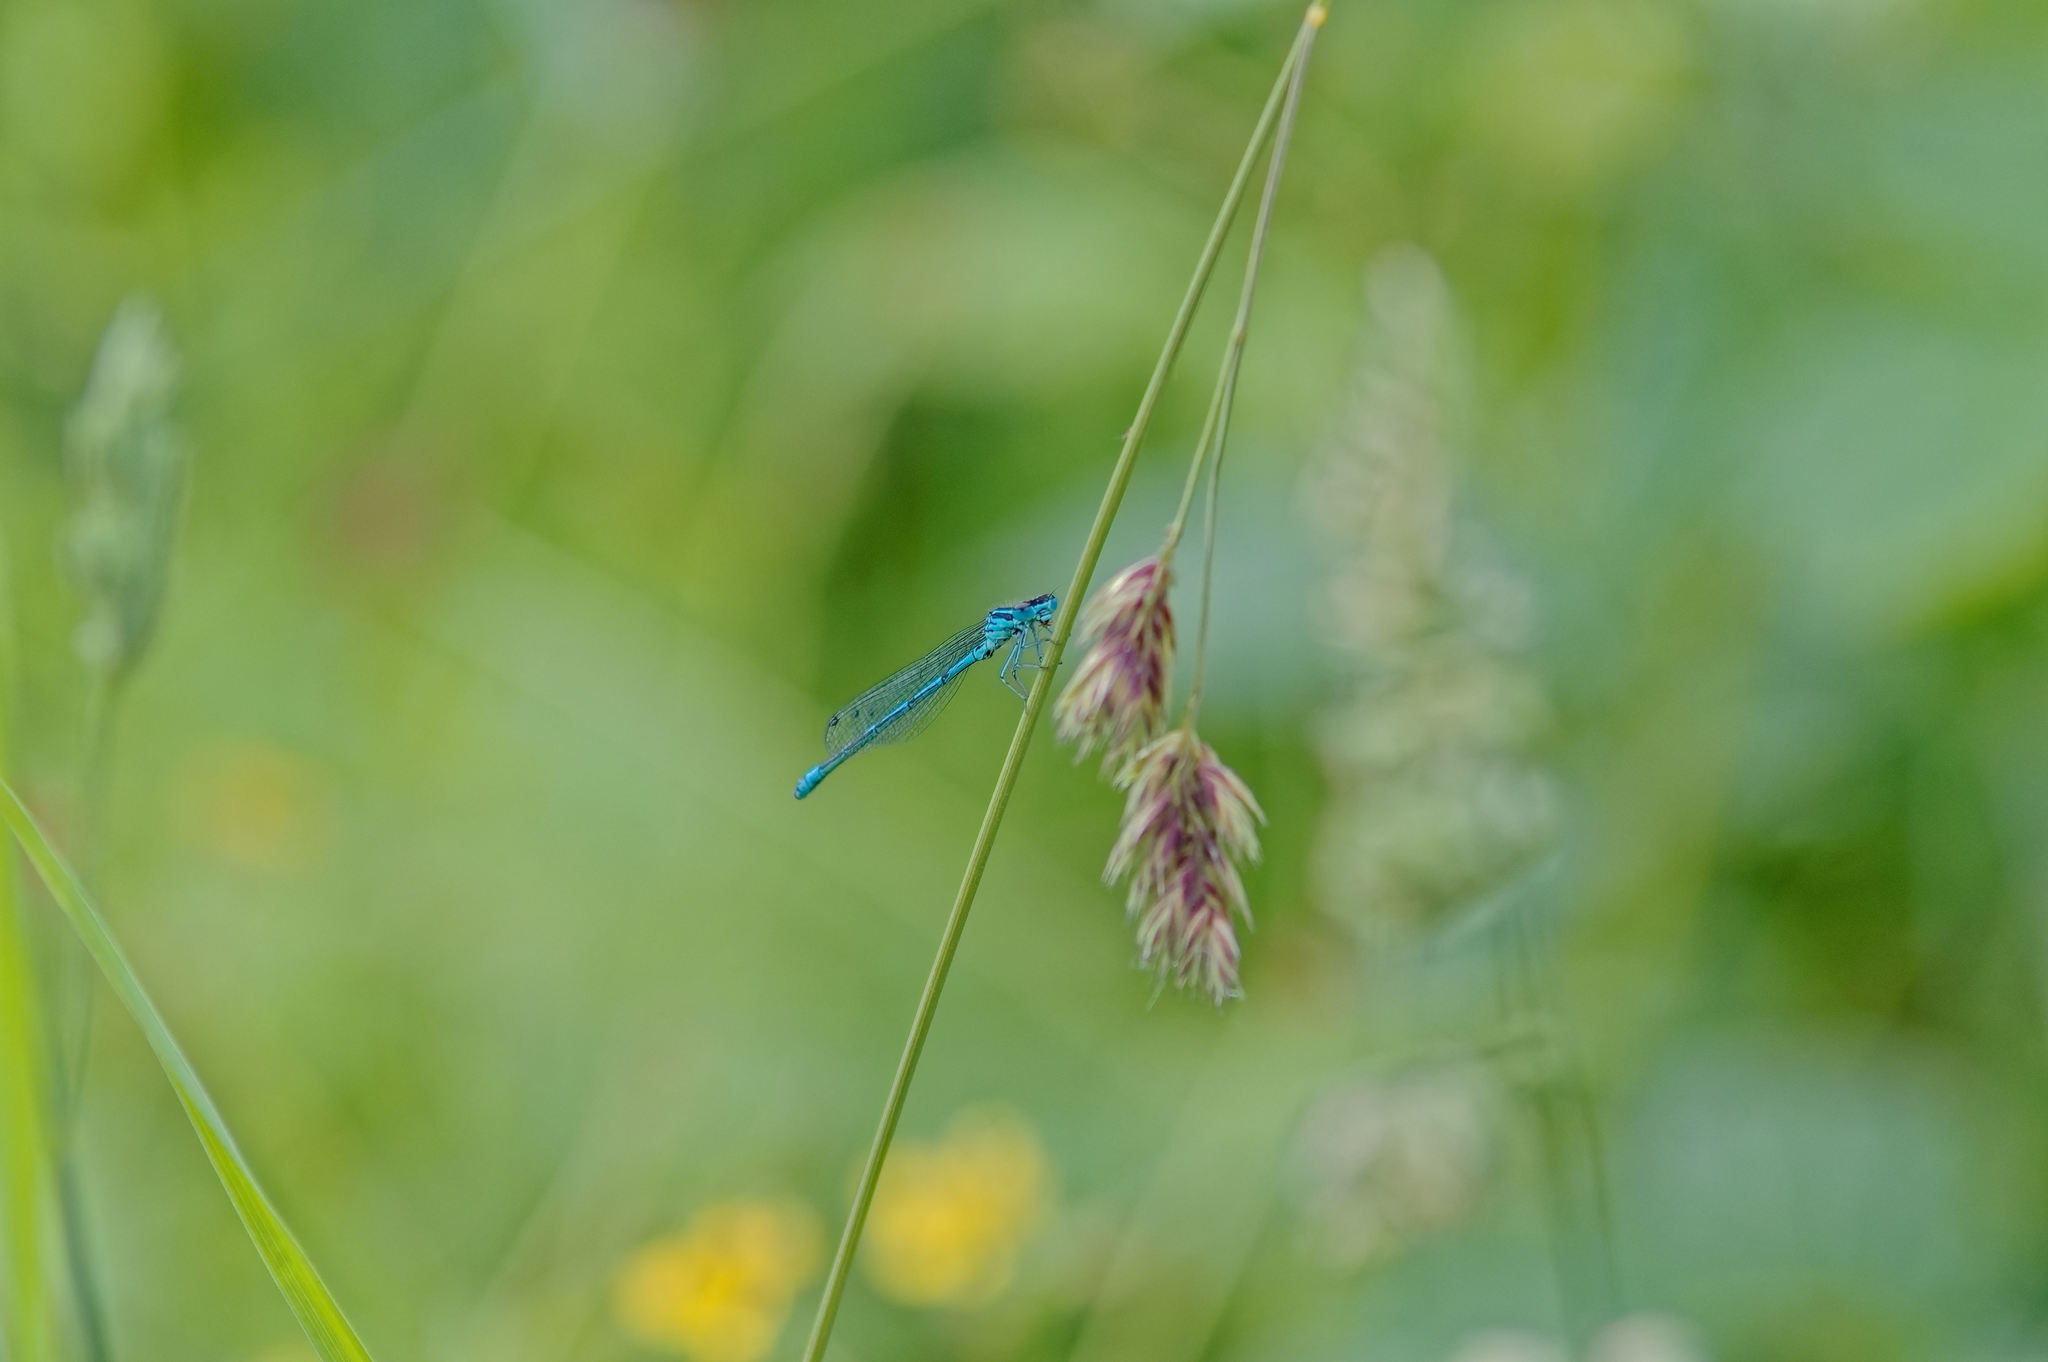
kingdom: Animalia
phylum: Arthropoda
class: Insecta
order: Odonata
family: Coenagrionidae
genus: Coenagrion
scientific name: Coenagrion puella
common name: Azure damselfly
